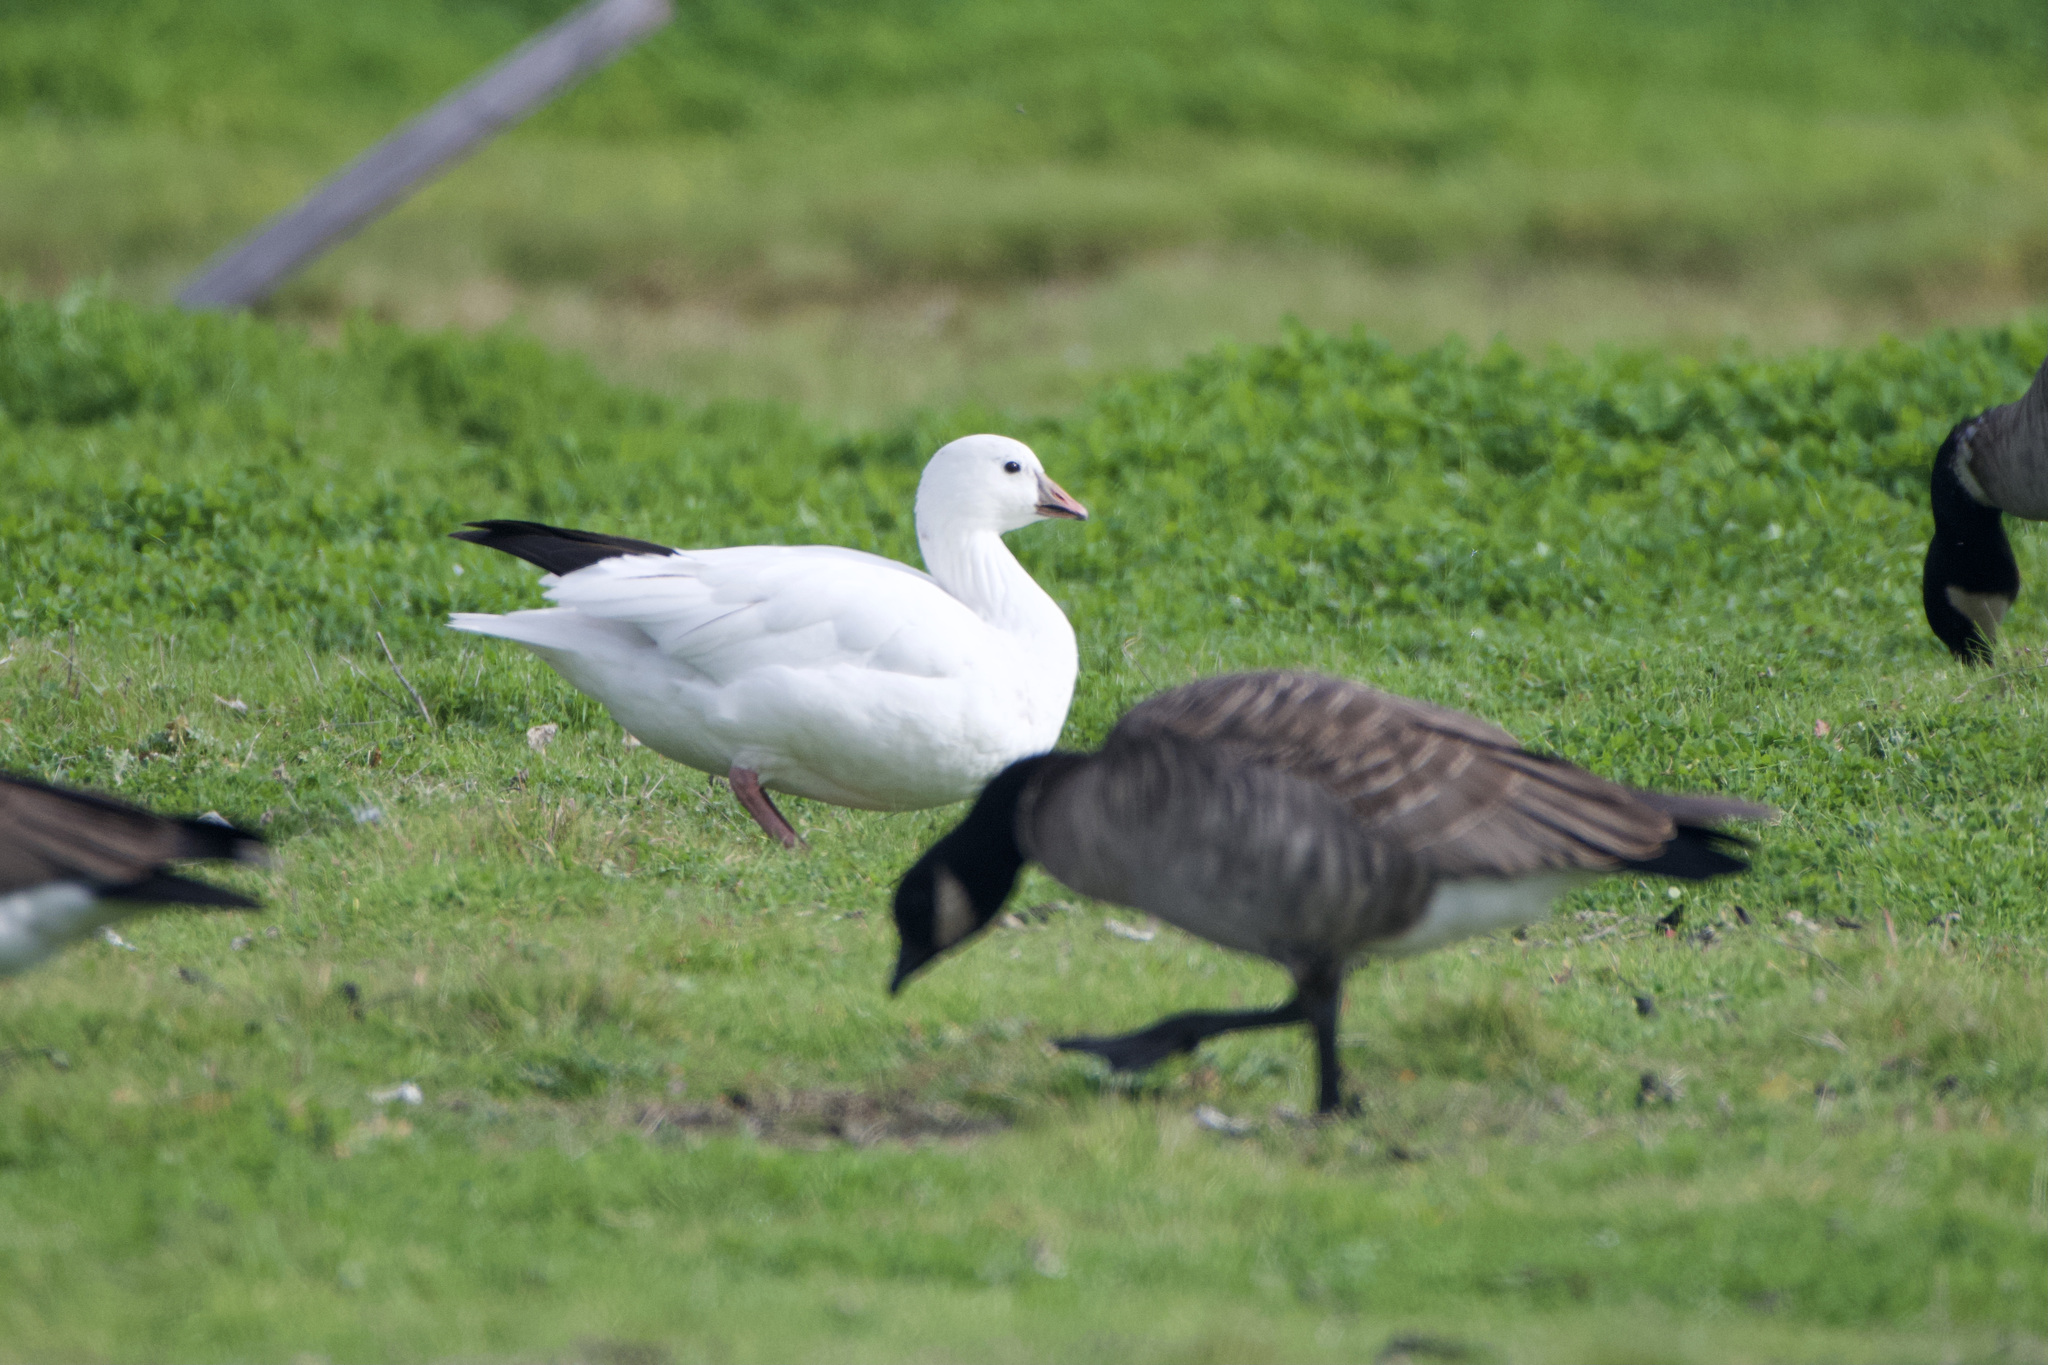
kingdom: Animalia
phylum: Chordata
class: Aves
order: Anseriformes
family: Anatidae
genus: Anser
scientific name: Anser rossii
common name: Ross's goose
